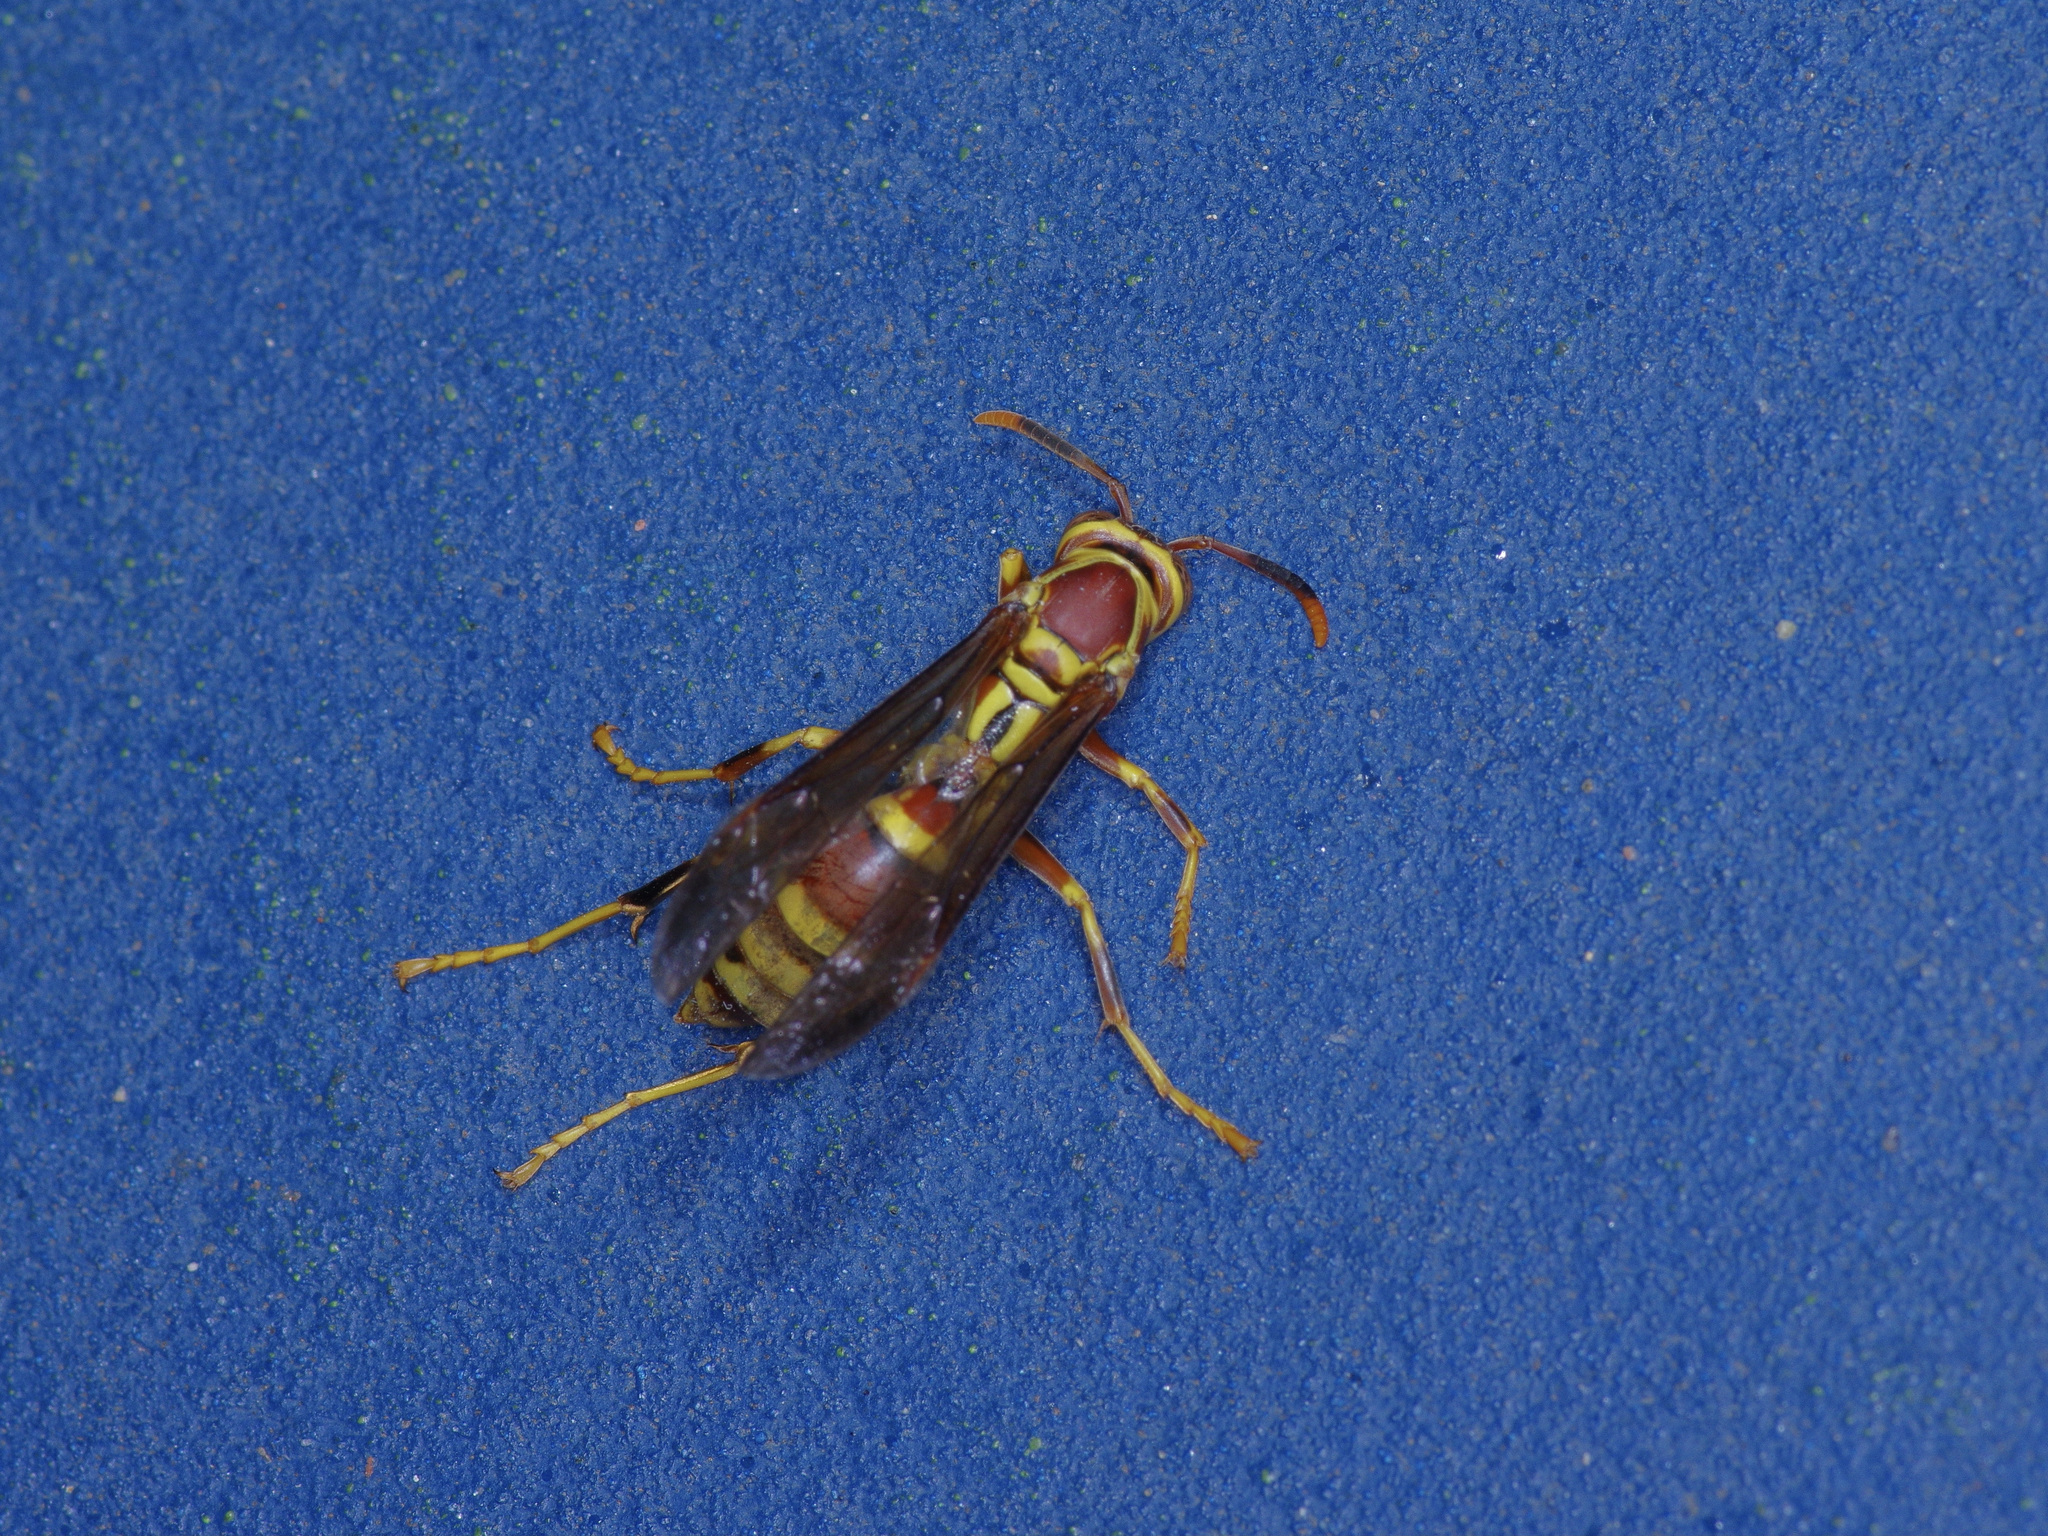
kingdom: Animalia
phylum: Arthropoda
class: Insecta
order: Hymenoptera
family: Eumenidae
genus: Polistes
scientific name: Polistes exclamans
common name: Paper wasp
